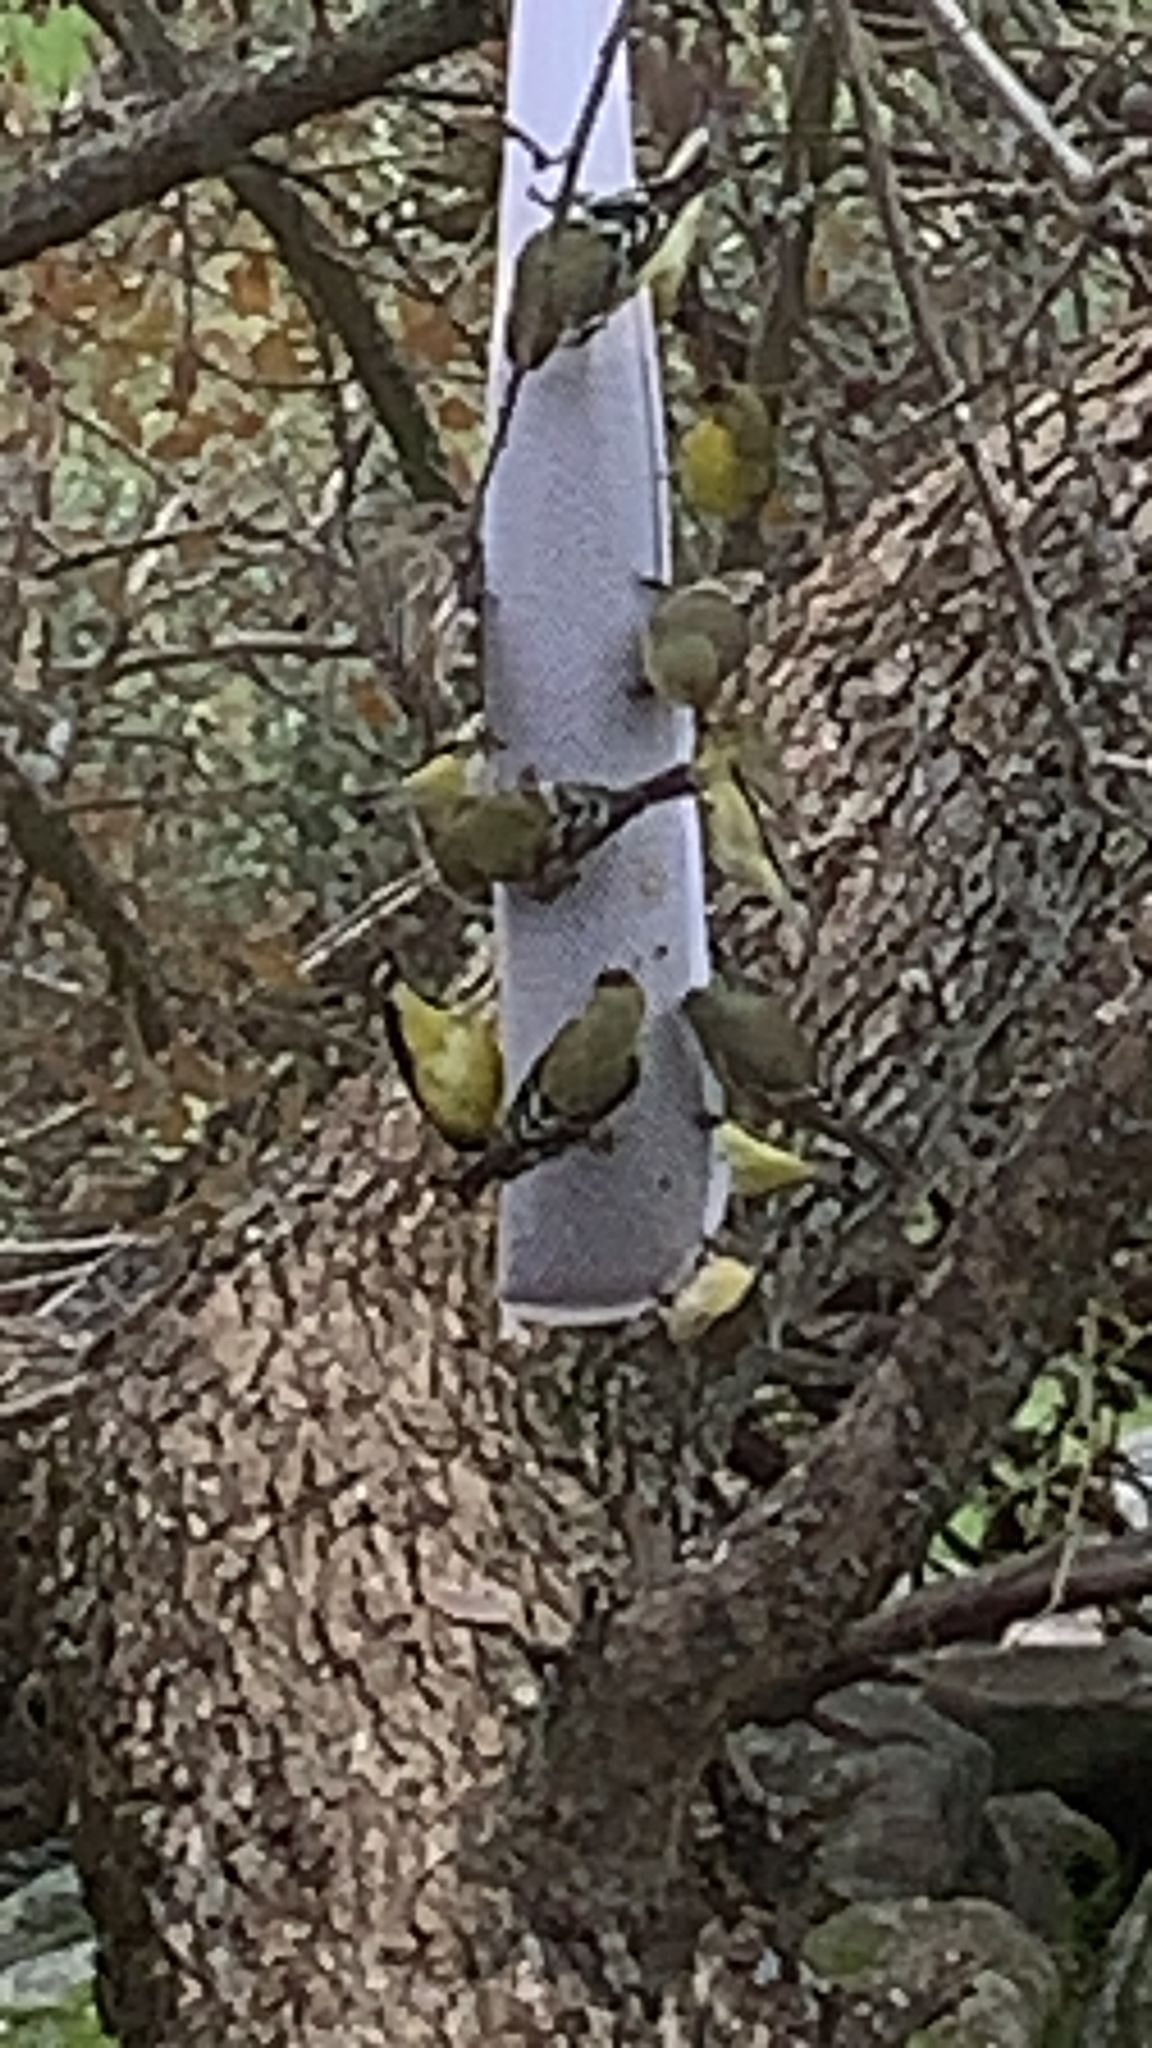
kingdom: Animalia
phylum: Chordata
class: Aves
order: Passeriformes
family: Fringillidae
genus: Spinus
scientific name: Spinus psaltria
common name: Lesser goldfinch
